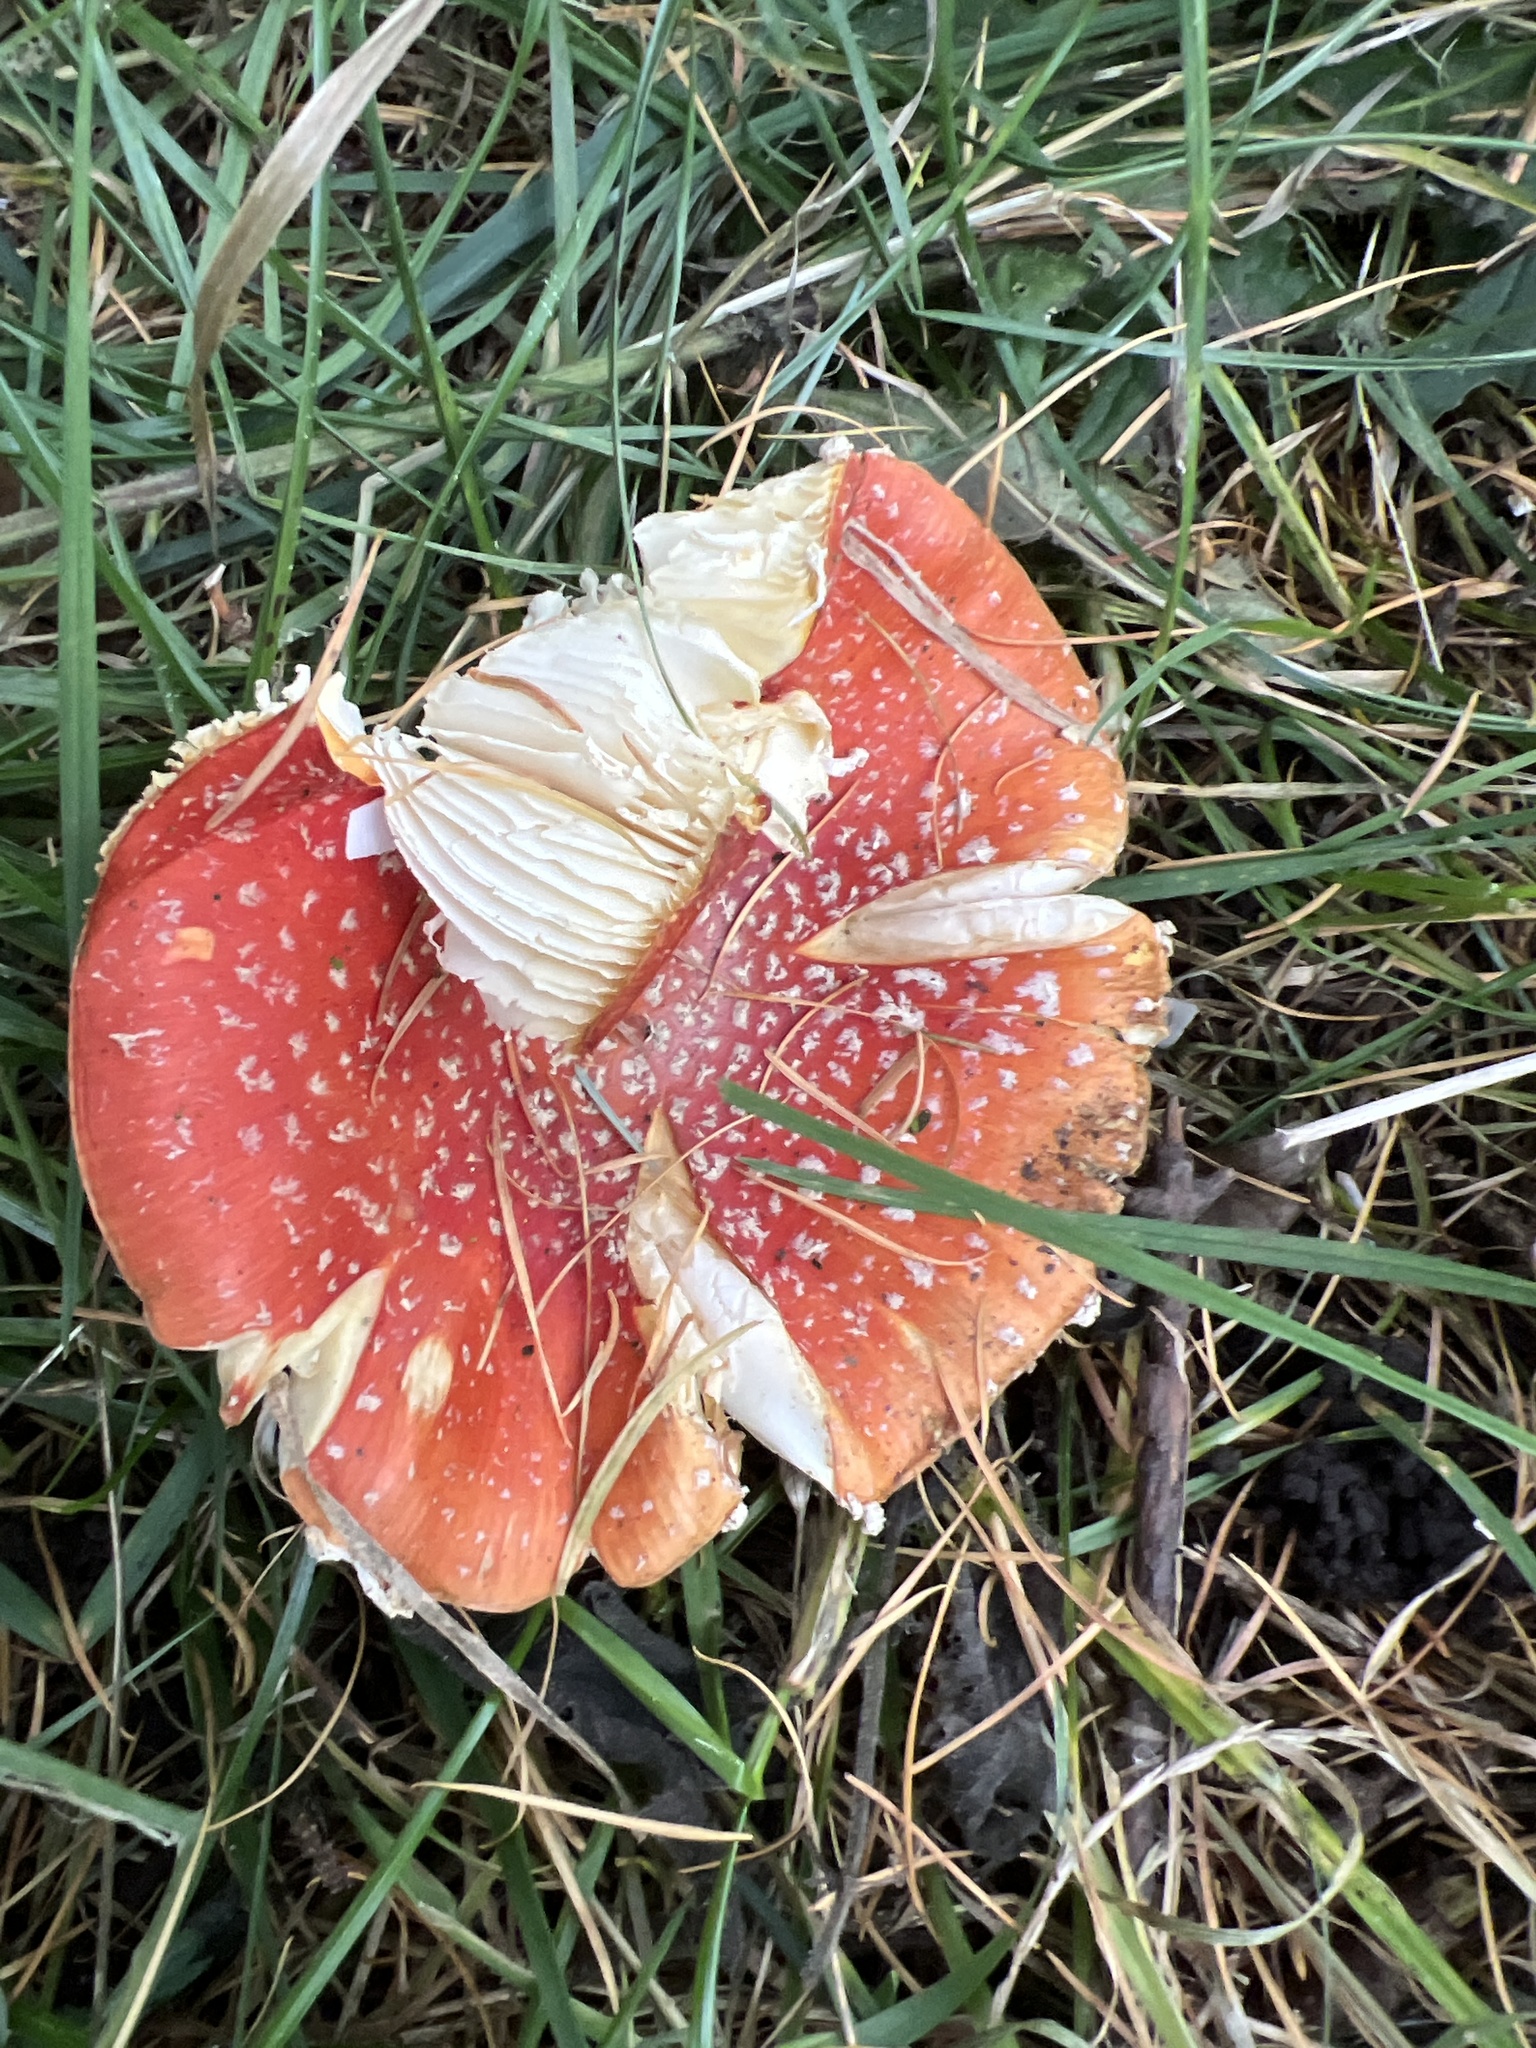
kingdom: Fungi
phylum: Basidiomycota
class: Agaricomycetes
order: Agaricales
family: Amanitaceae
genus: Amanita
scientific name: Amanita muscaria
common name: Fly agaric
